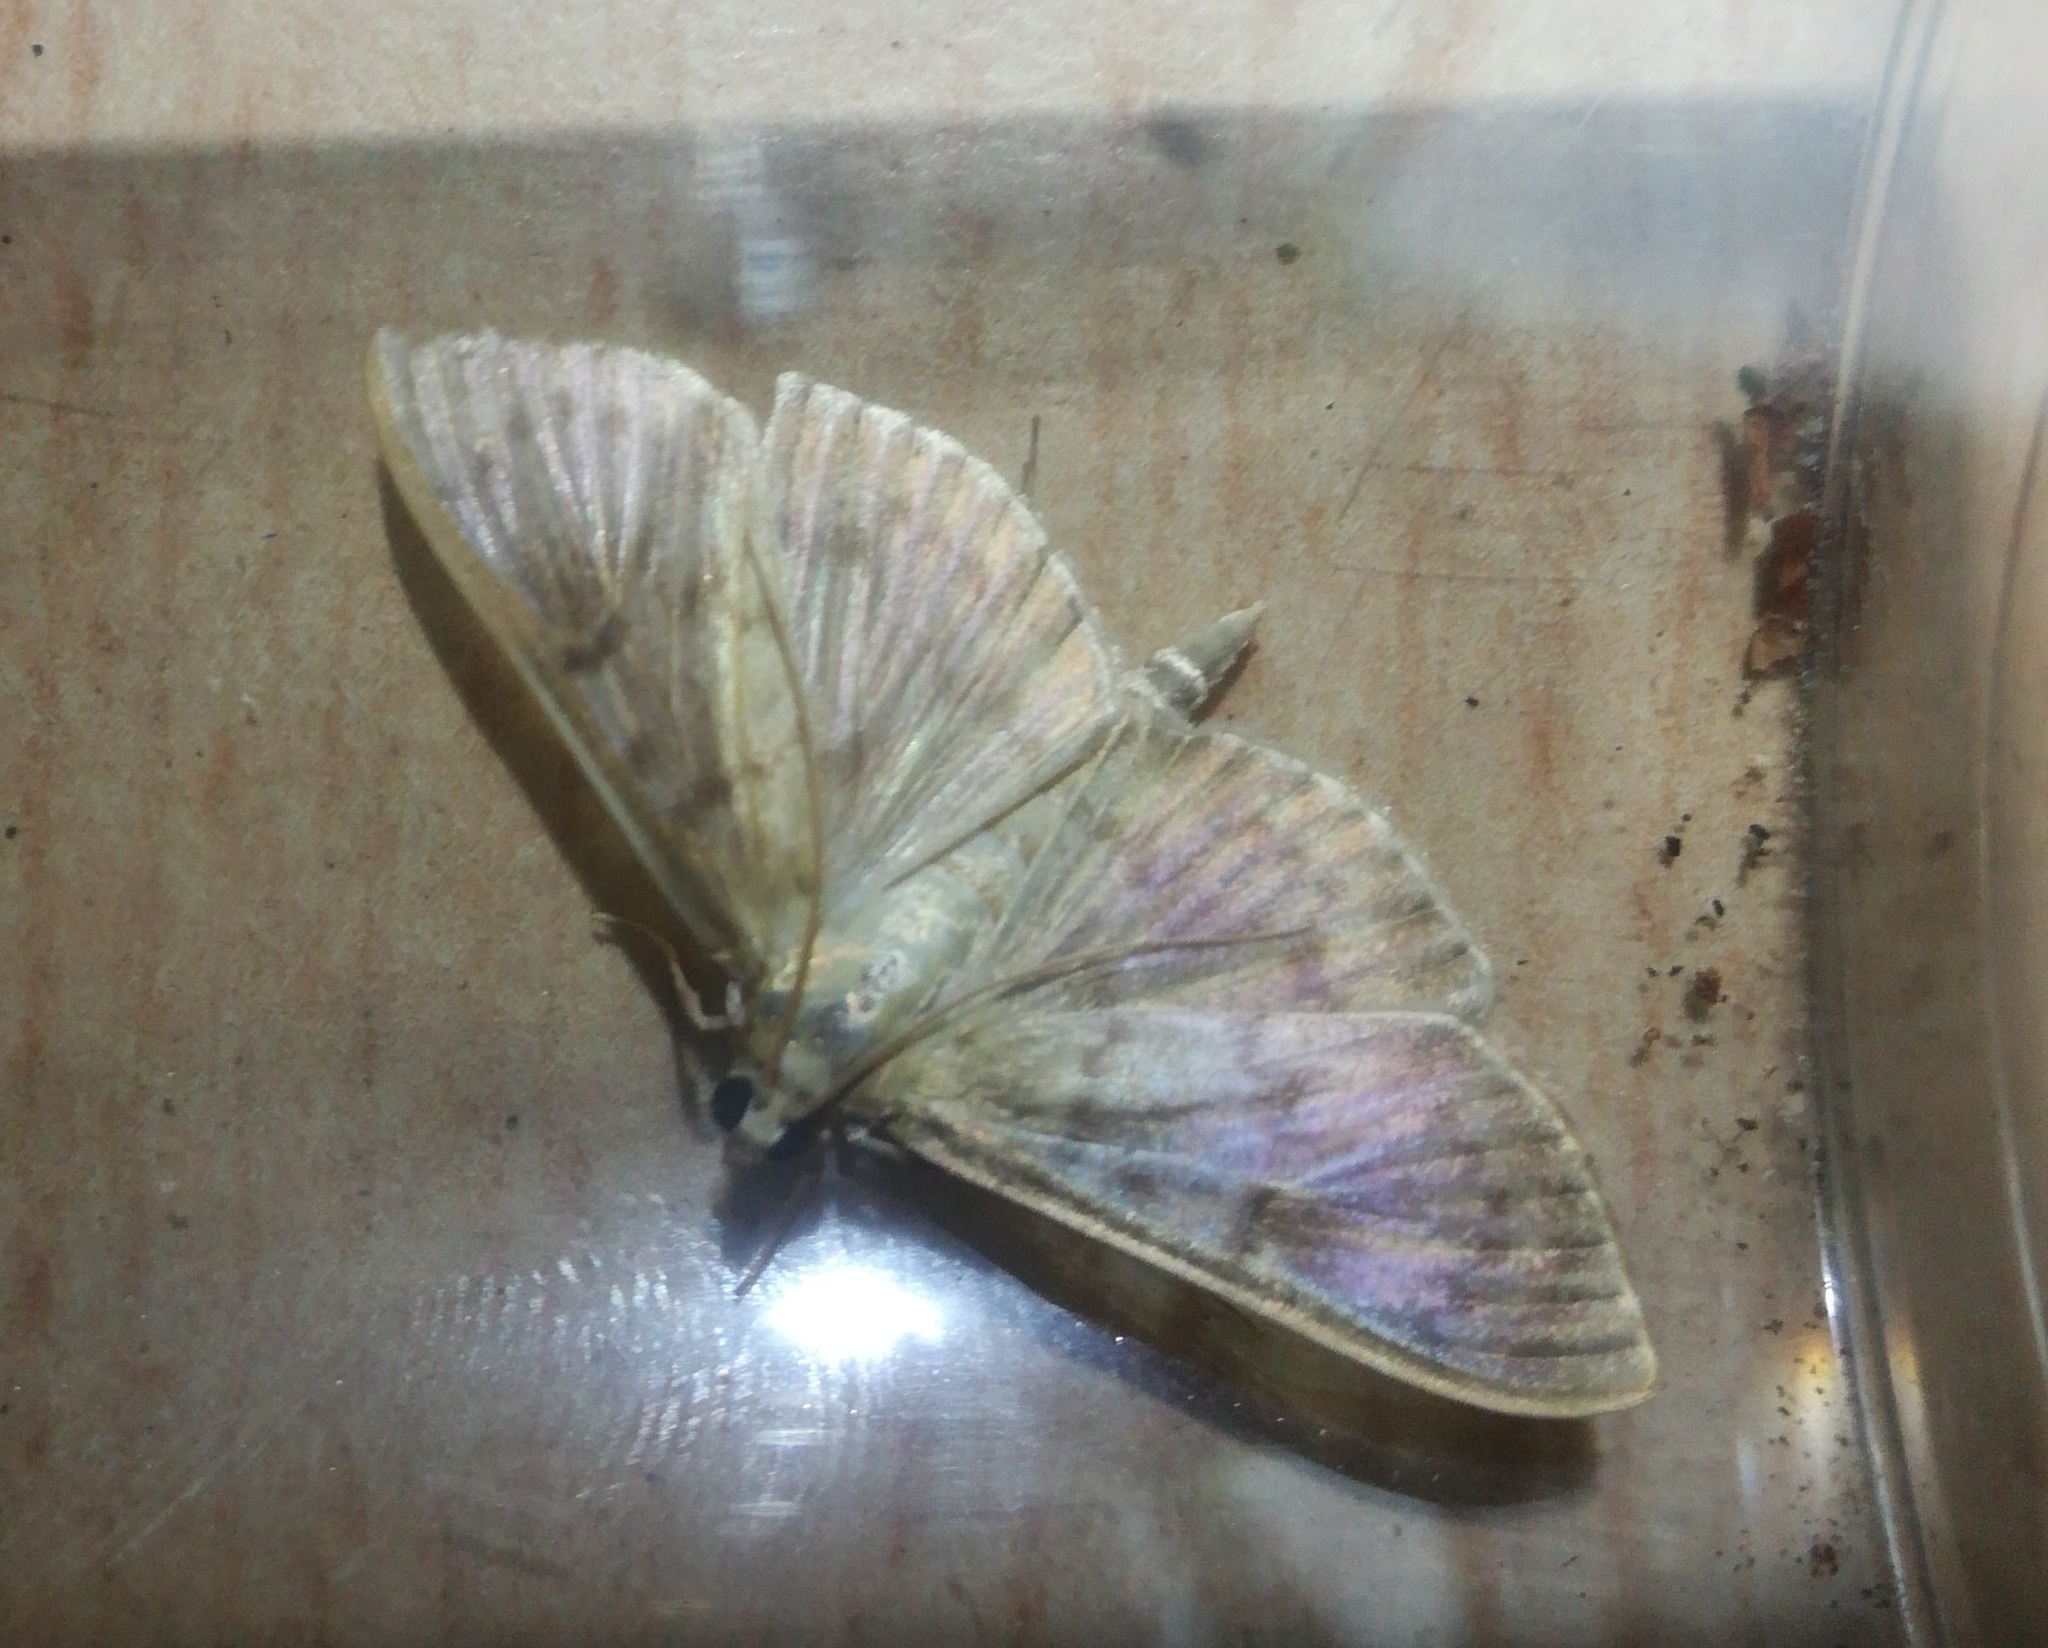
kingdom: Animalia
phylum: Arthropoda
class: Insecta
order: Lepidoptera
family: Crambidae
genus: Patania
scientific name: Patania ruralis
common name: Mother of pearl
